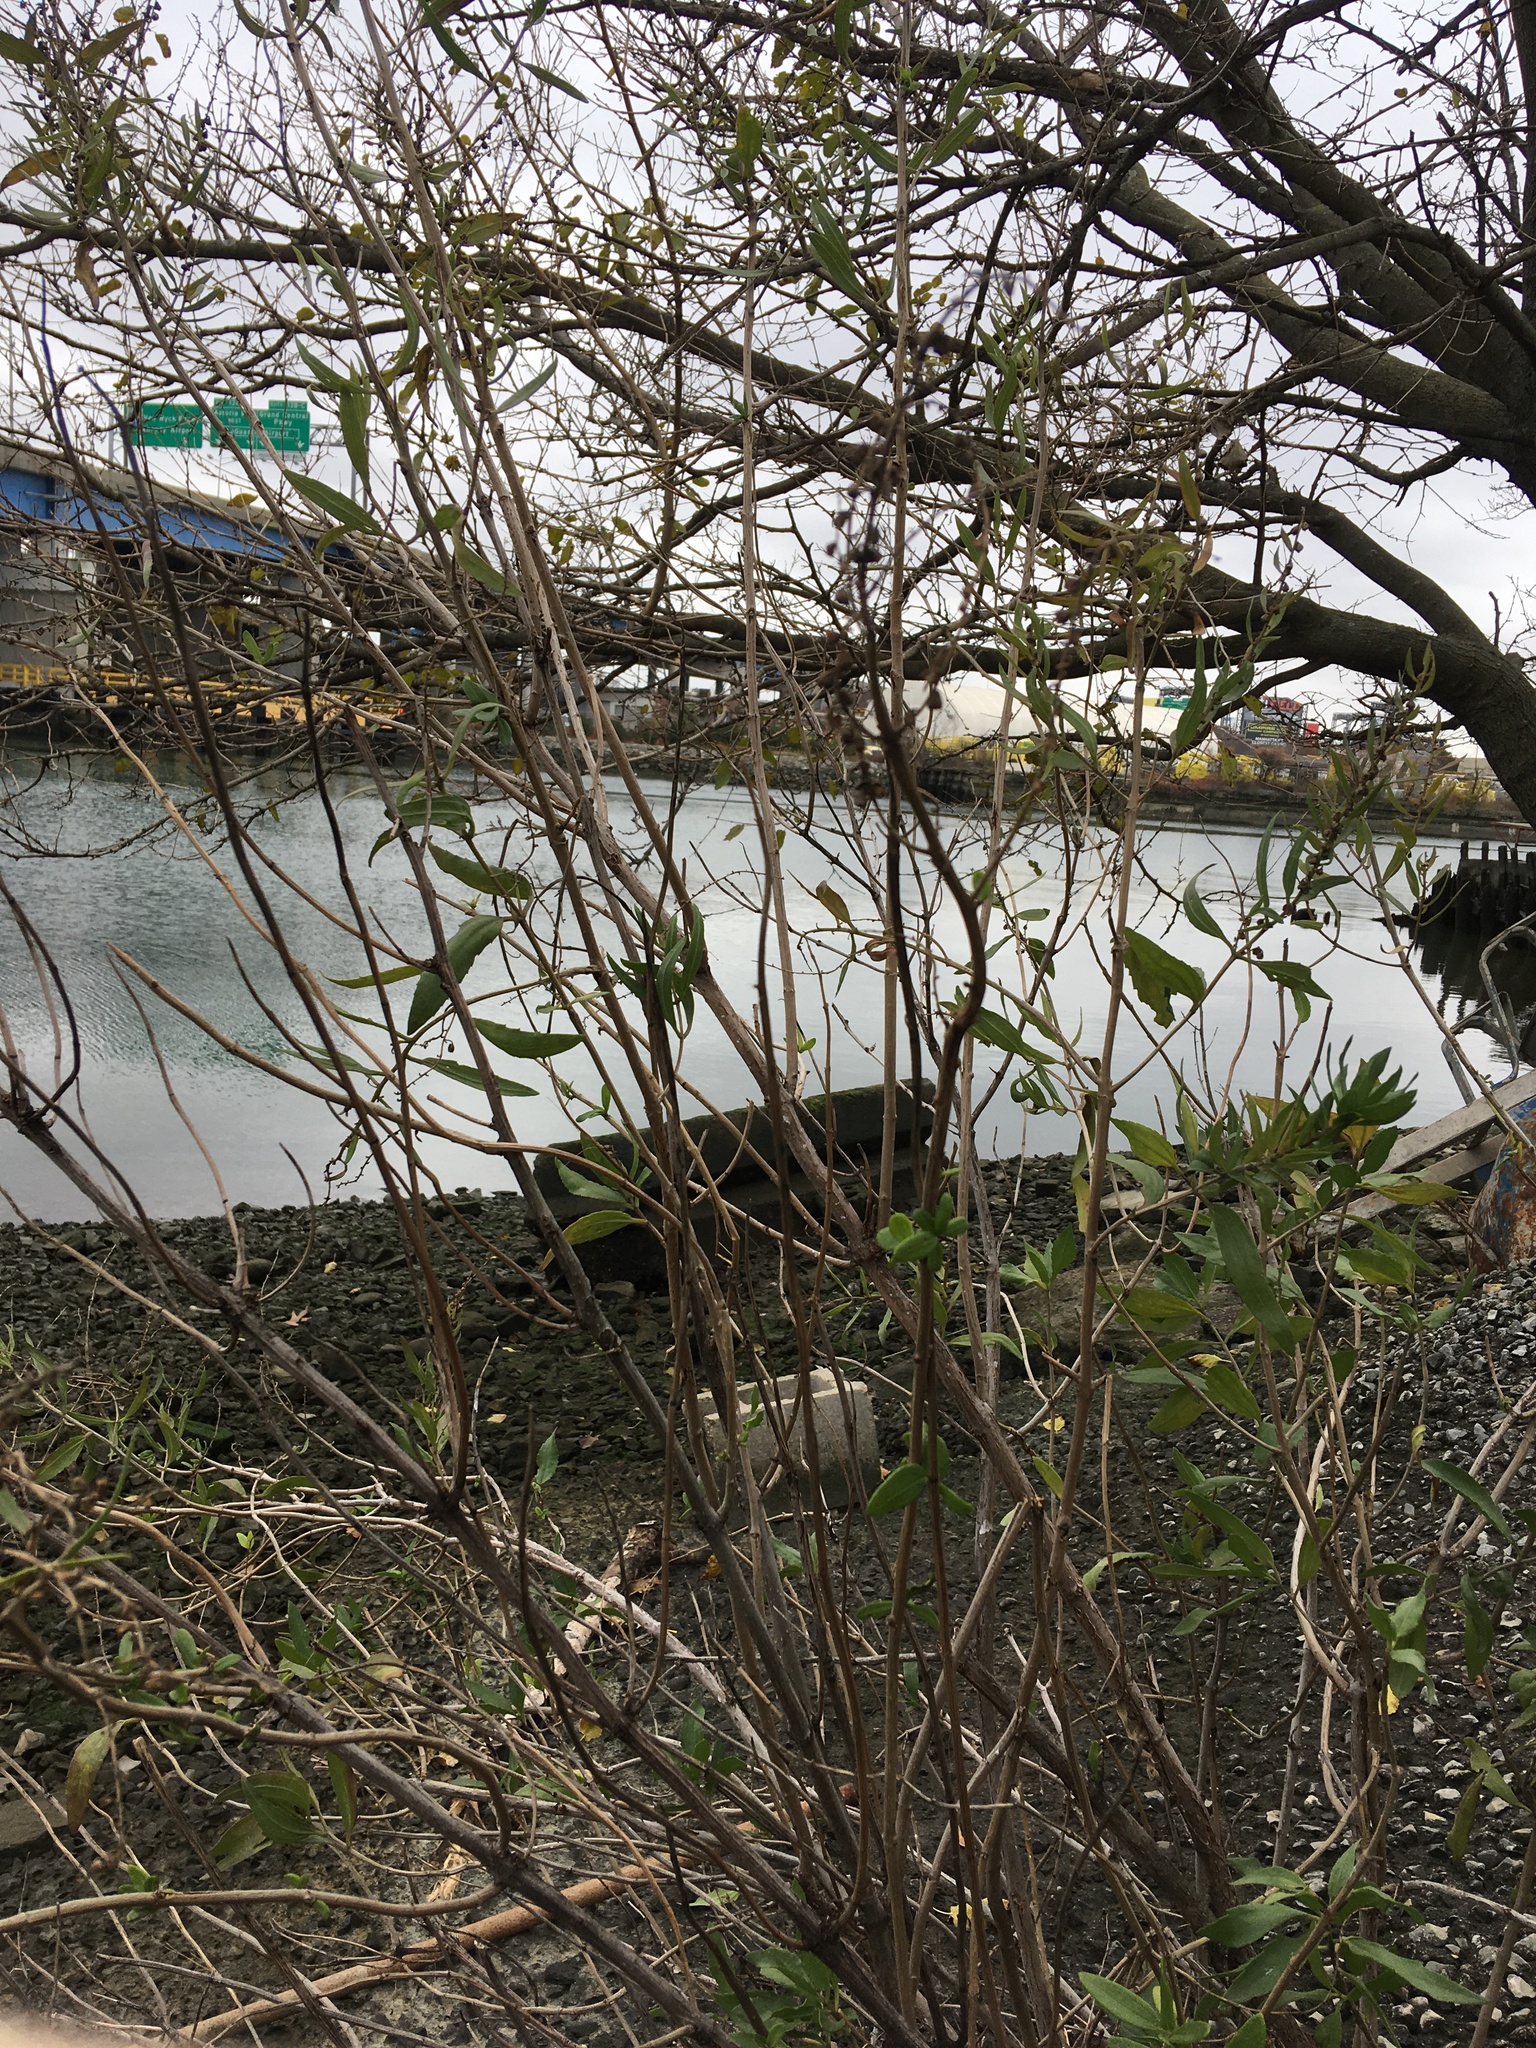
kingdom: Plantae
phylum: Tracheophyta
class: Magnoliopsida
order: Asterales
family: Asteraceae
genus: Iva
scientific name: Iva frutescens
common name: Big-leaved marsh-elder
